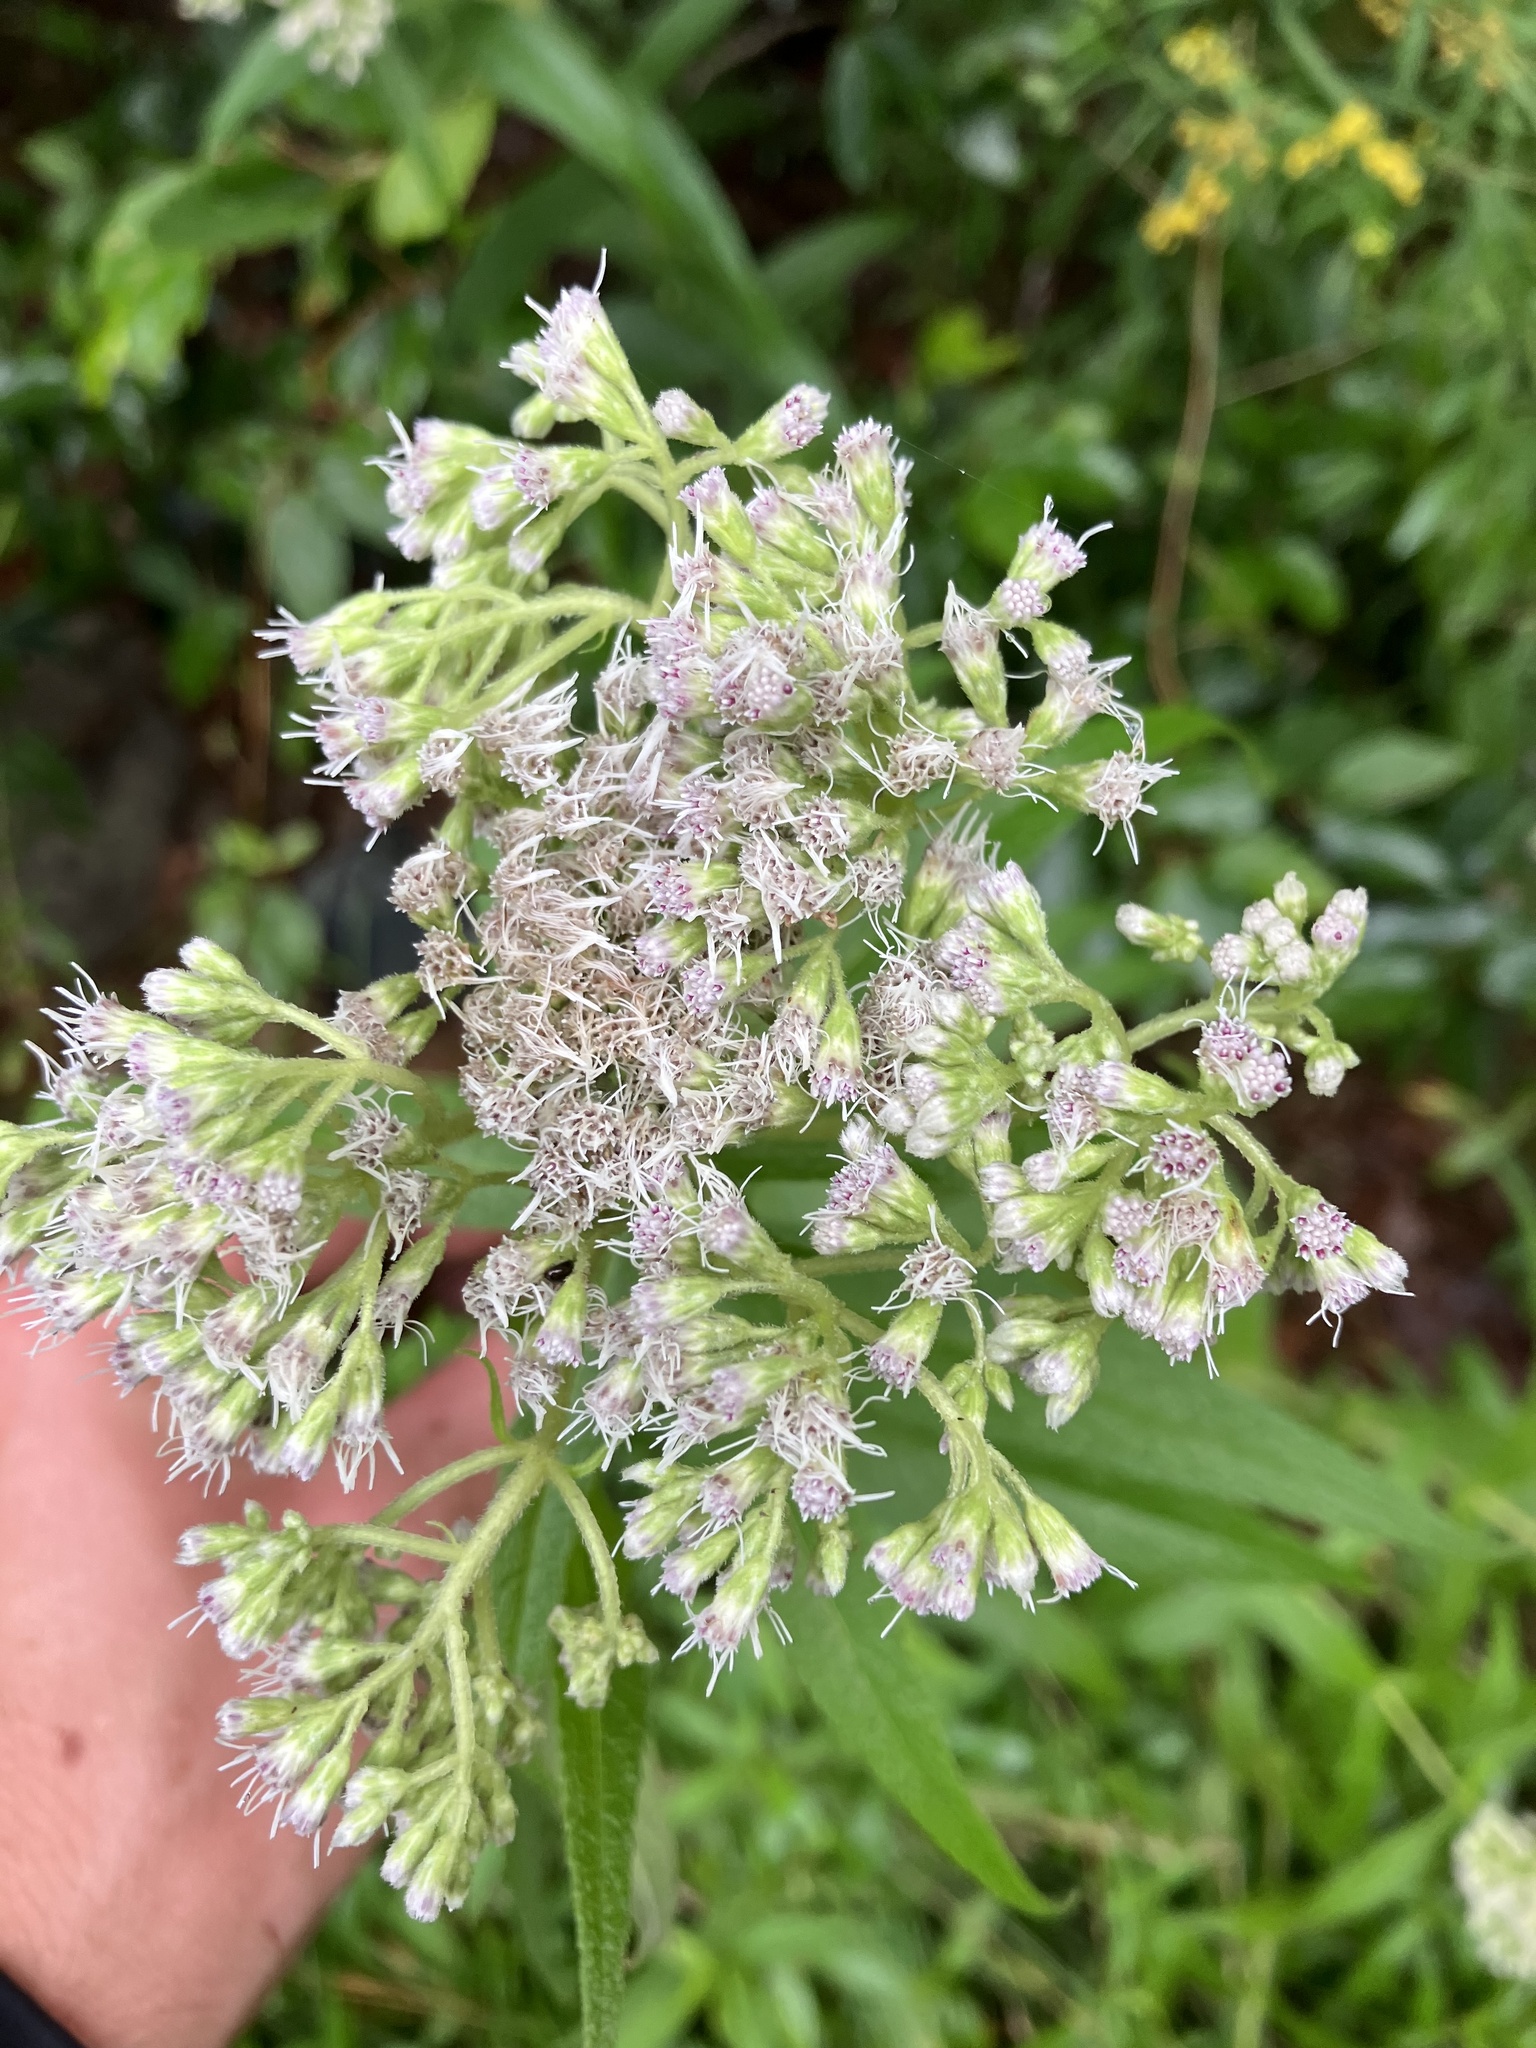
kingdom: Plantae
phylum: Tracheophyta
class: Magnoliopsida
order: Asterales
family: Asteraceae
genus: Eupatorium
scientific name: Eupatorium perfoliatum
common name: Boneset
